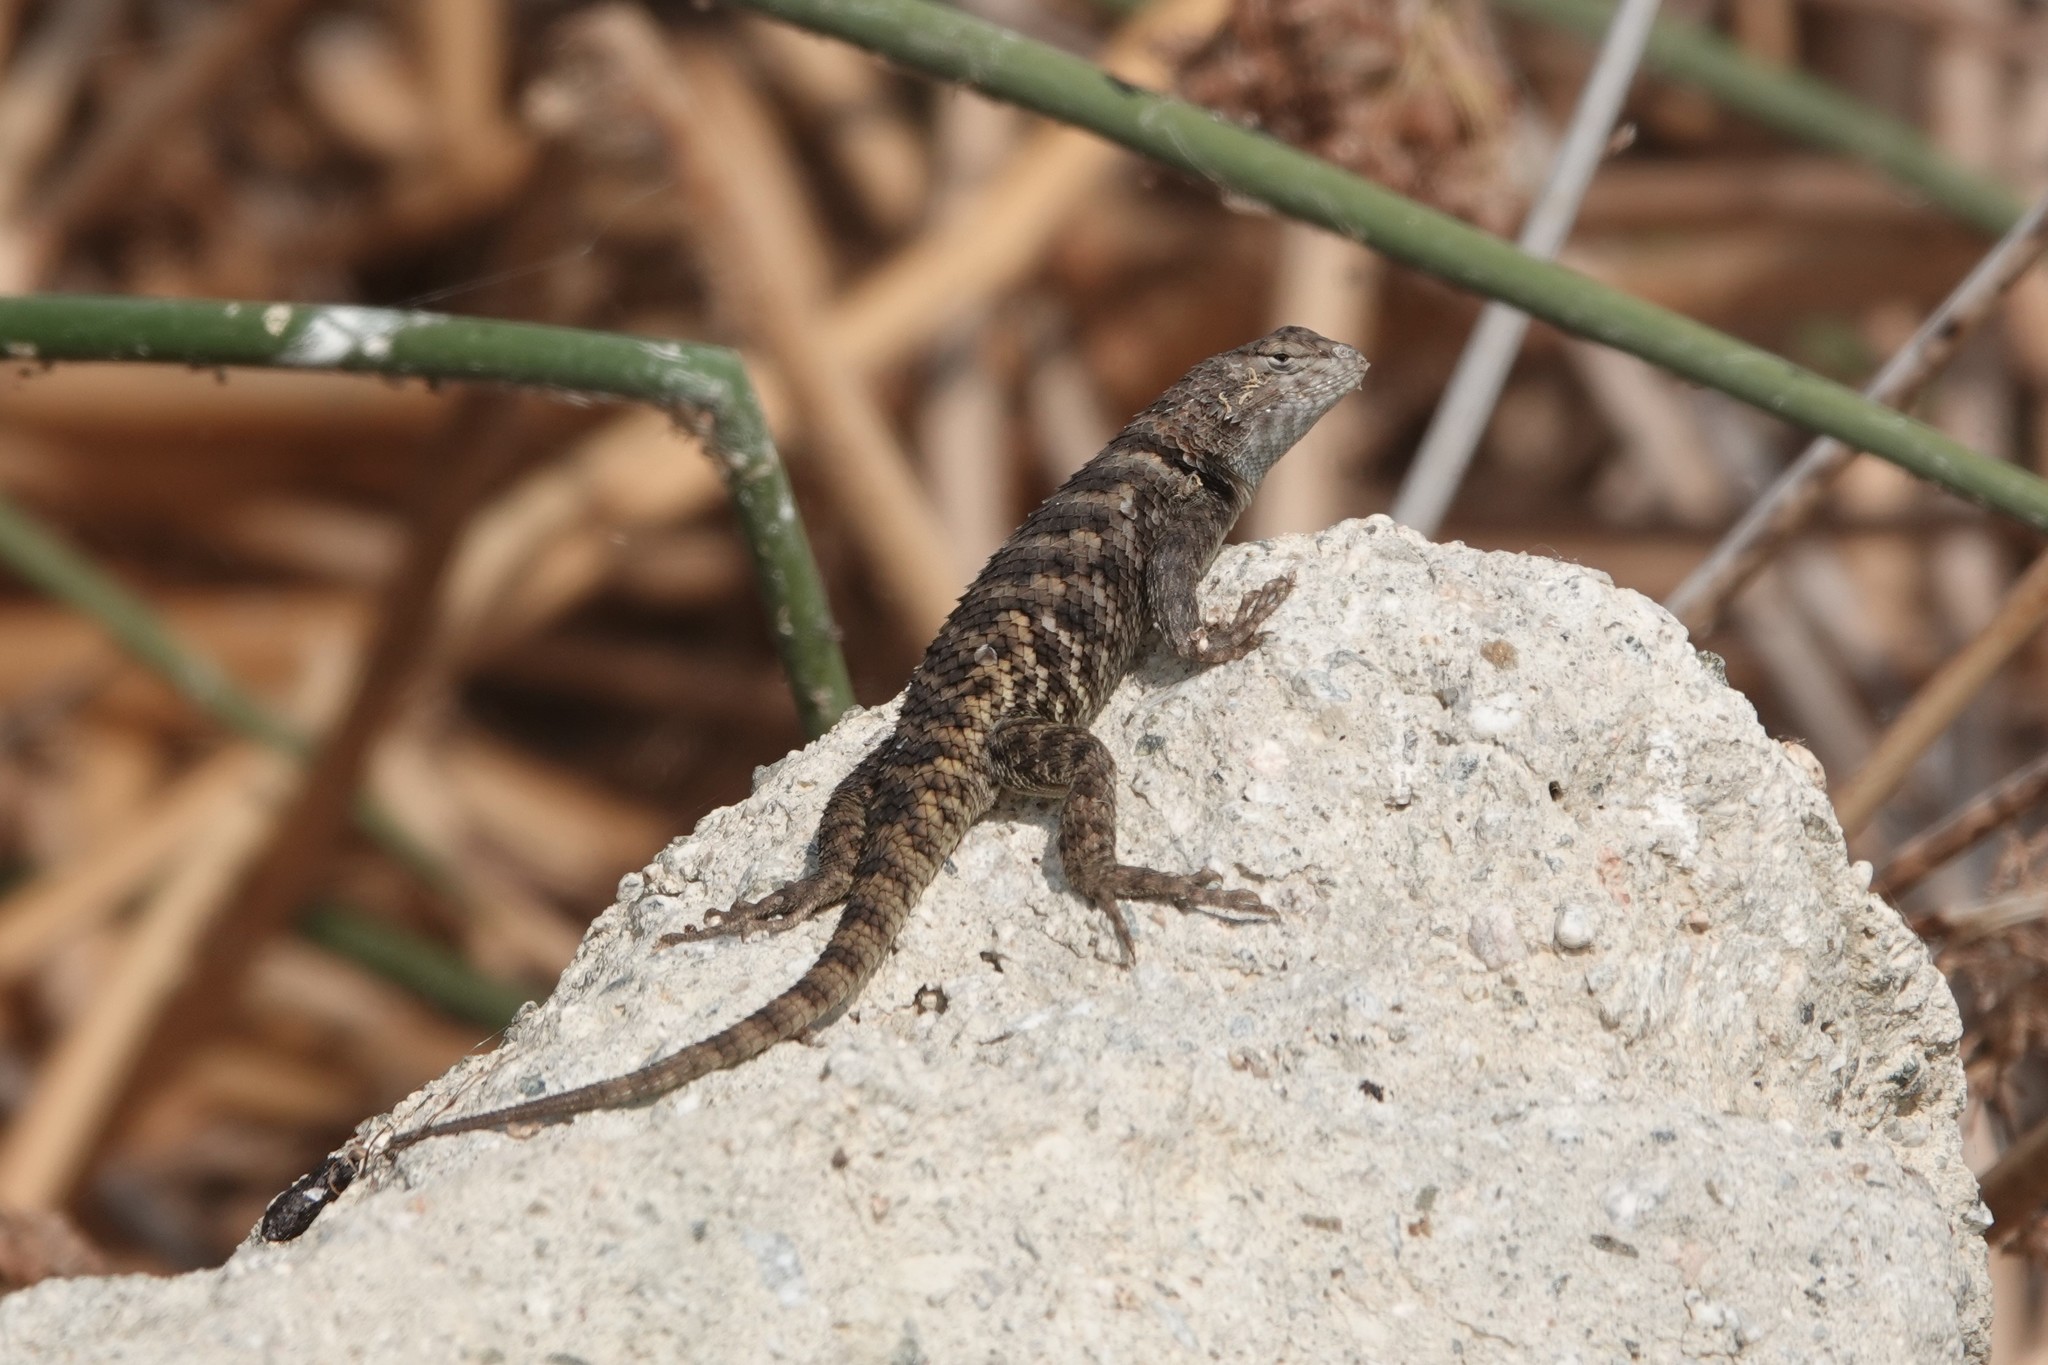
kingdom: Animalia
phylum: Chordata
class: Squamata
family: Phrynosomatidae
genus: Sceloporus
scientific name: Sceloporus uniformis
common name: Yellow-backed spiny lizard
